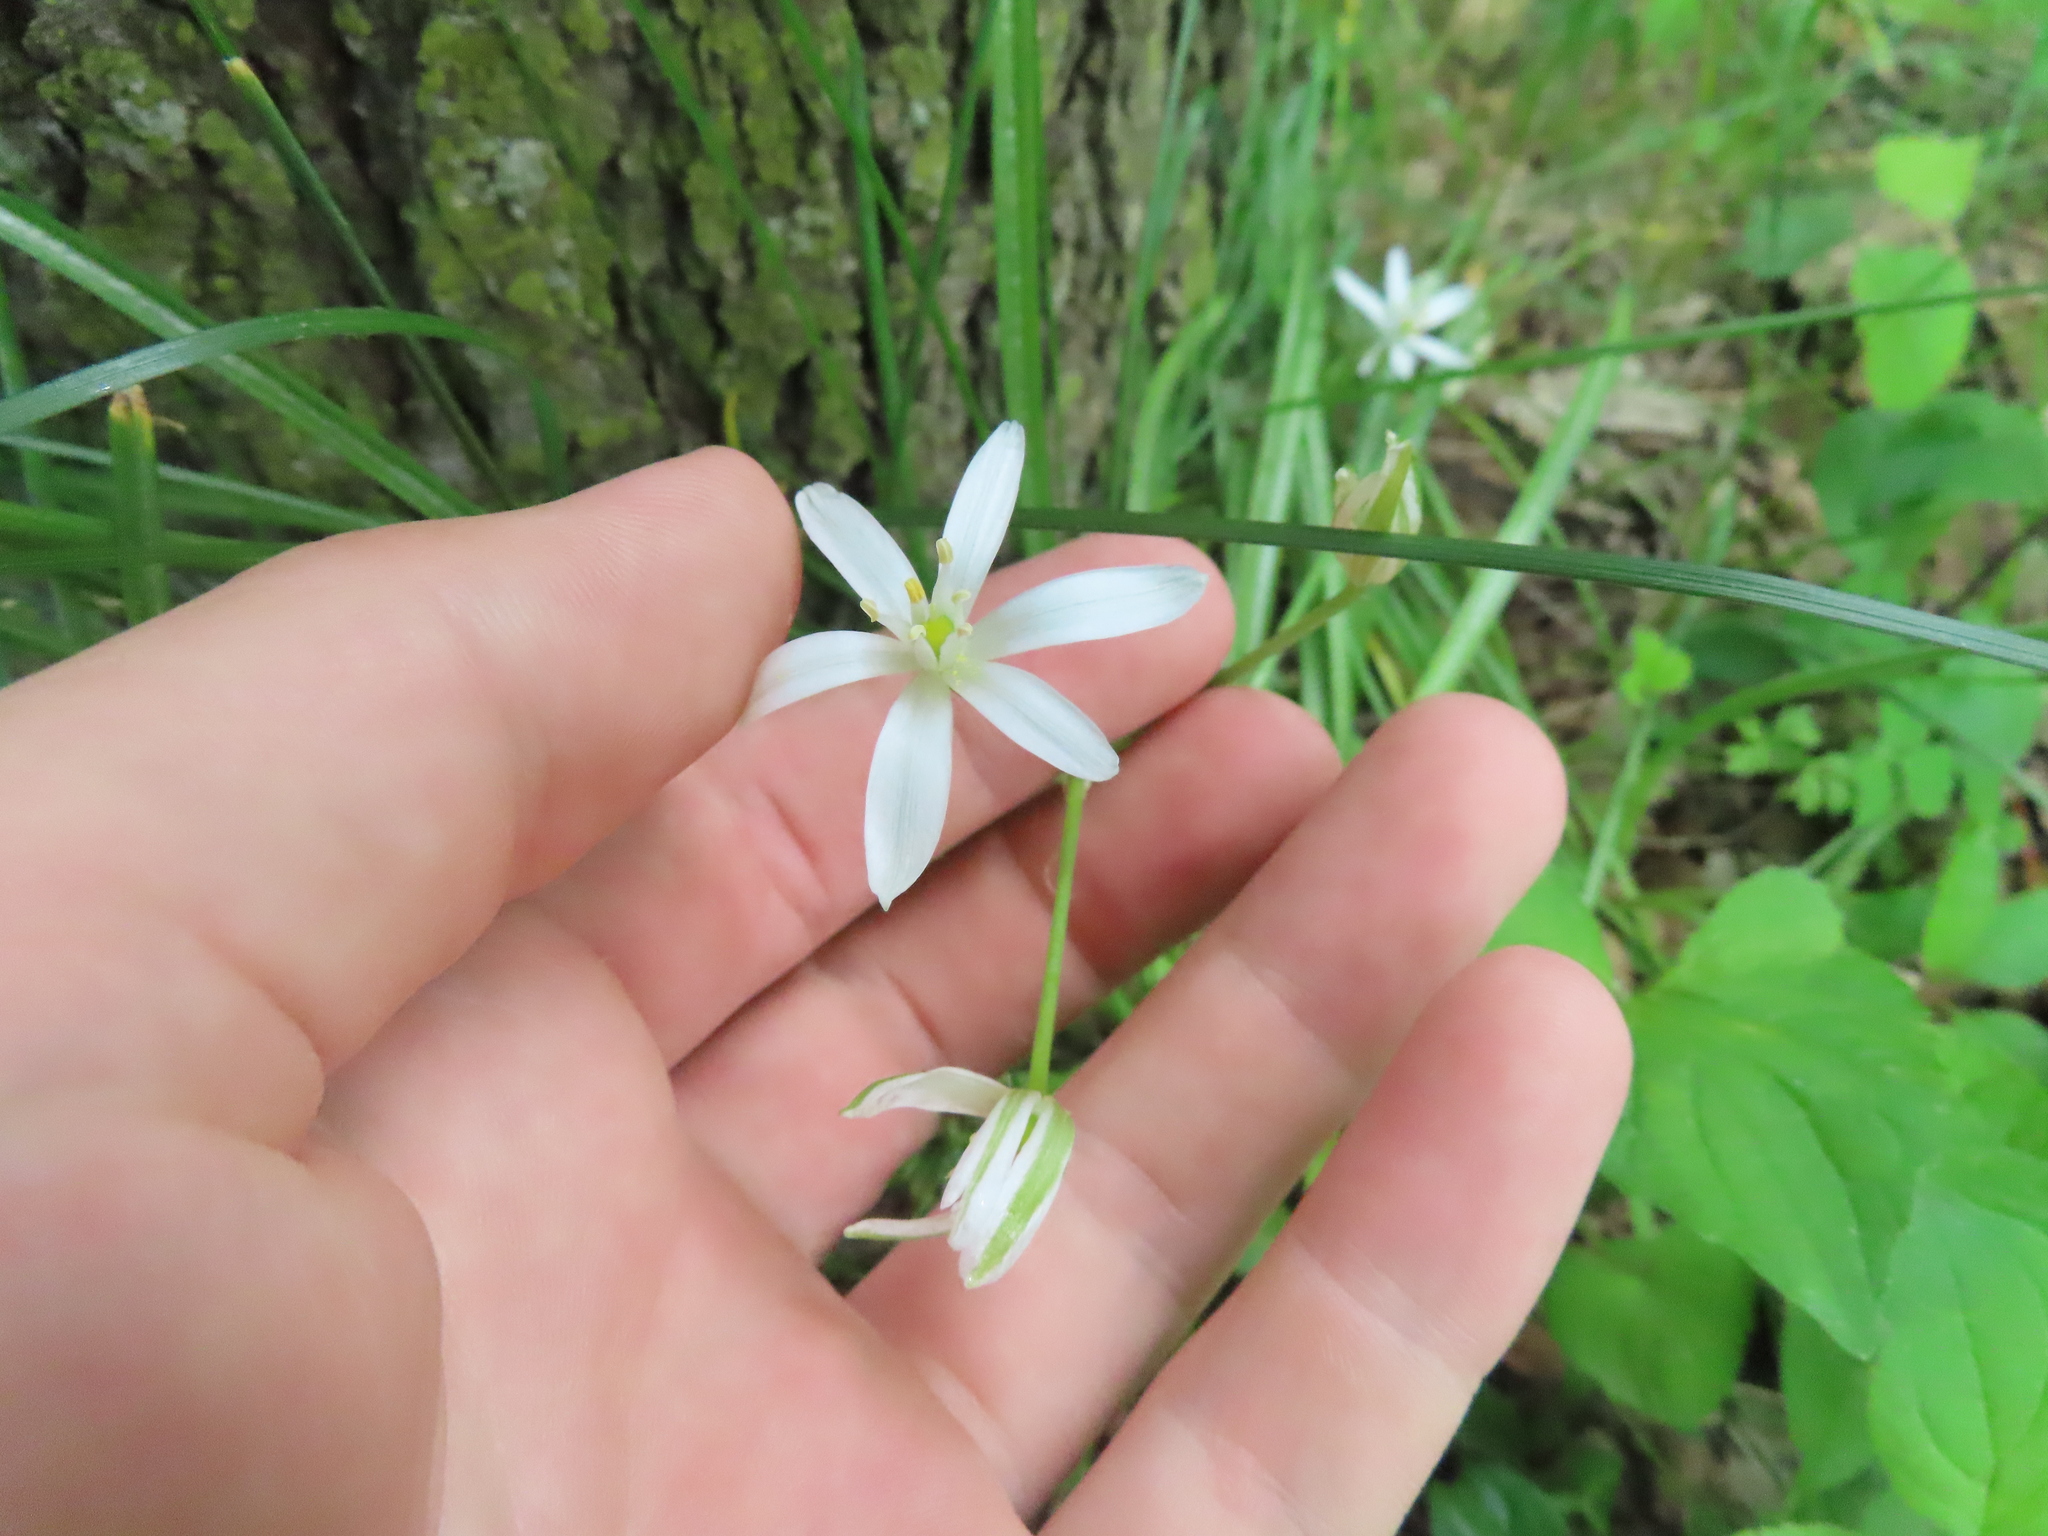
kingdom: Plantae
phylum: Tracheophyta
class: Liliopsida
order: Asparagales
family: Asparagaceae
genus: Ornithogalum
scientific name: Ornithogalum umbellatum
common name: Garden star-of-bethlehem
